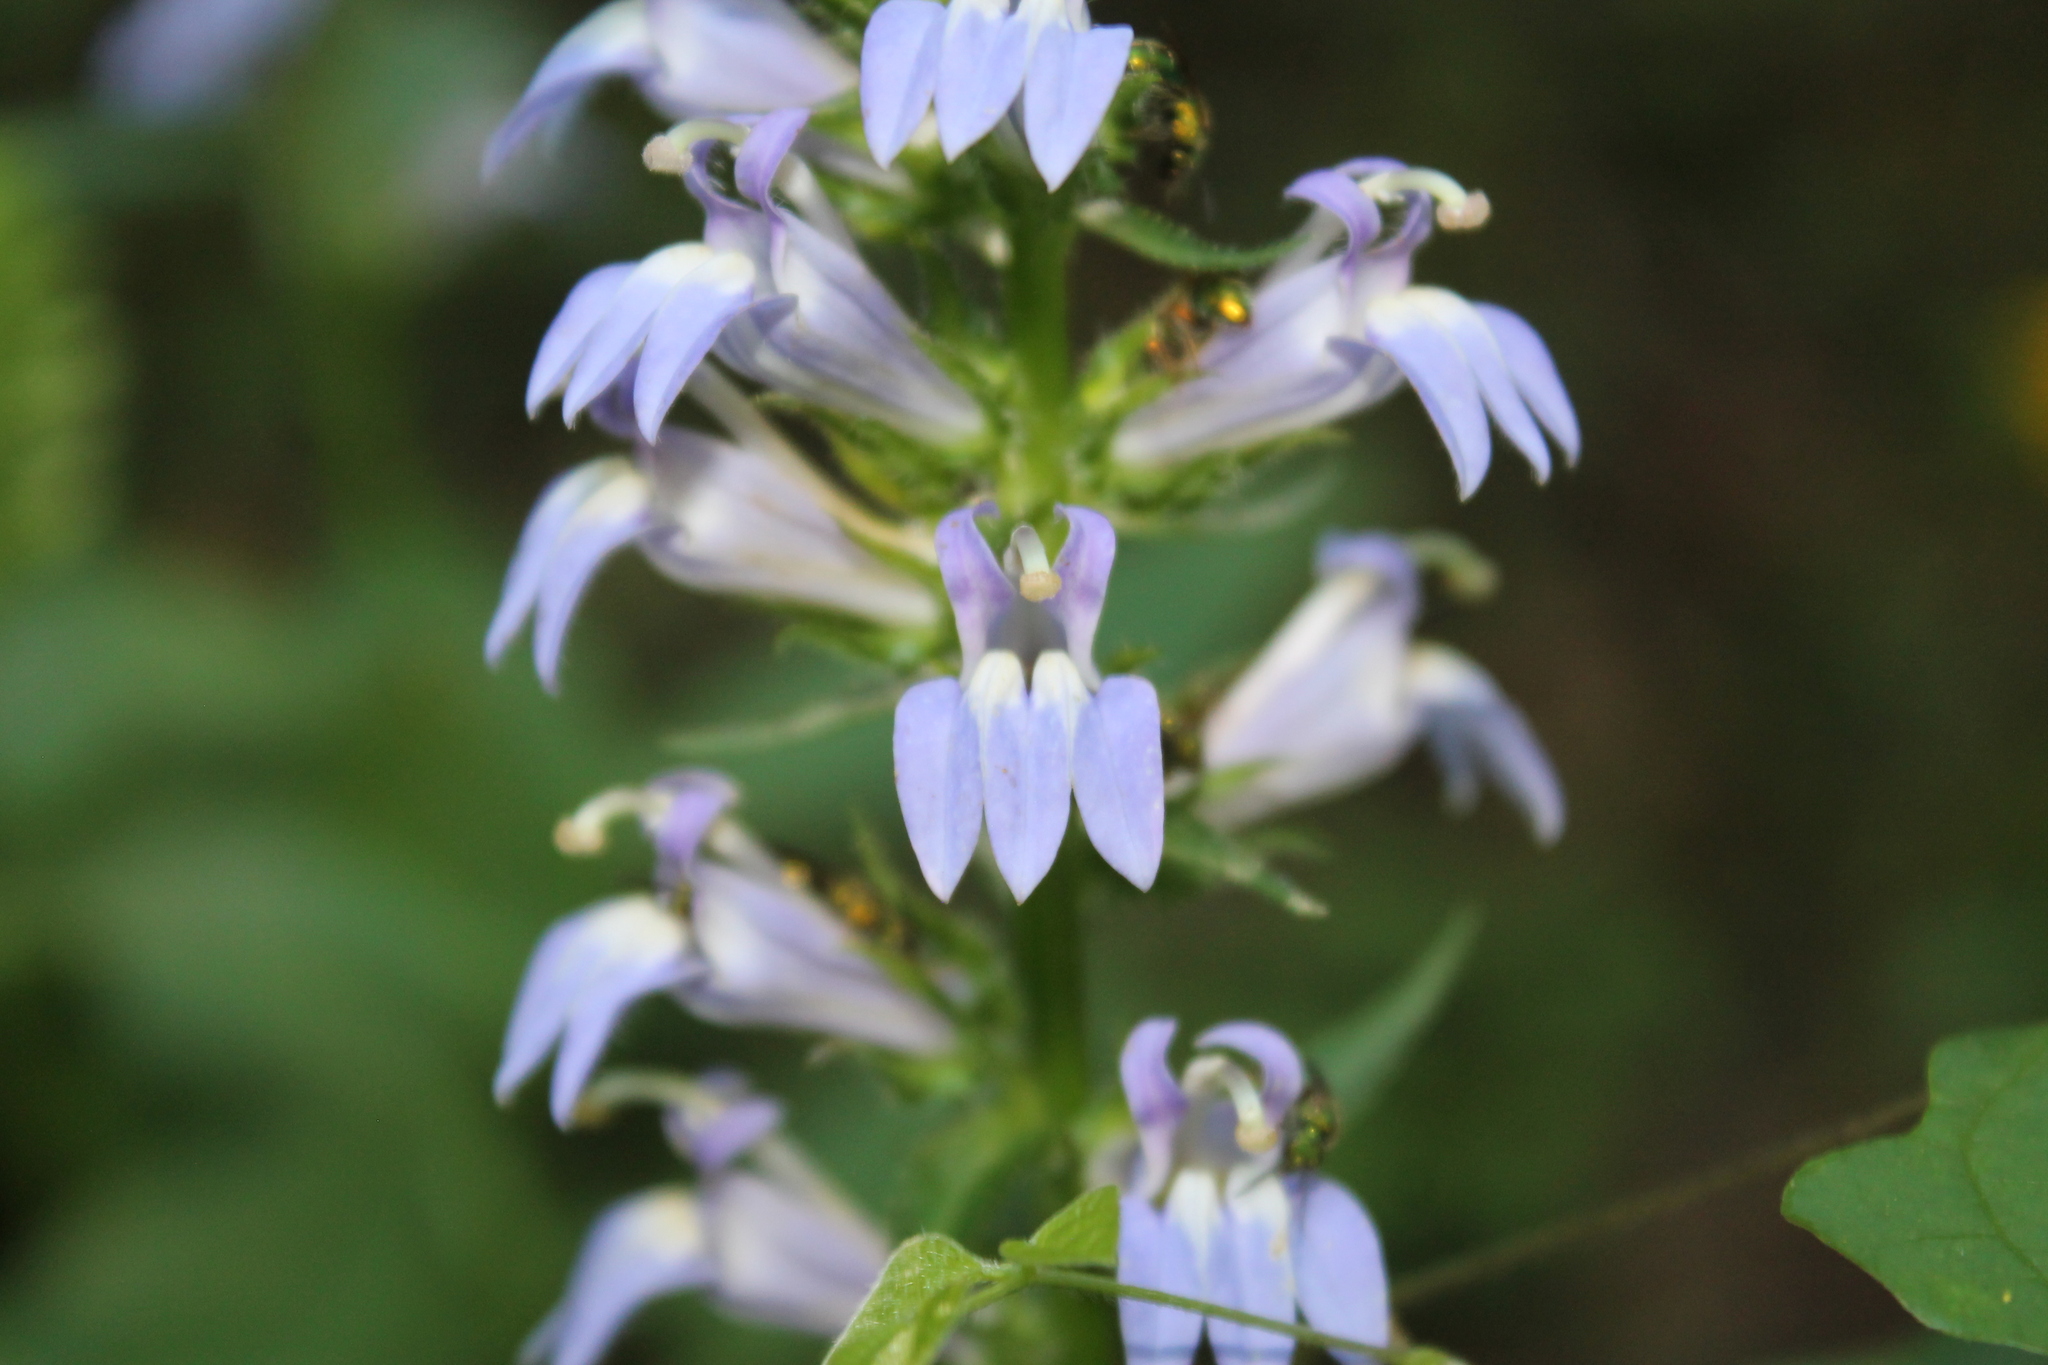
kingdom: Plantae
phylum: Tracheophyta
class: Magnoliopsida
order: Asterales
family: Campanulaceae
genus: Lobelia
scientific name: Lobelia siphilitica
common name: Great lobelia
